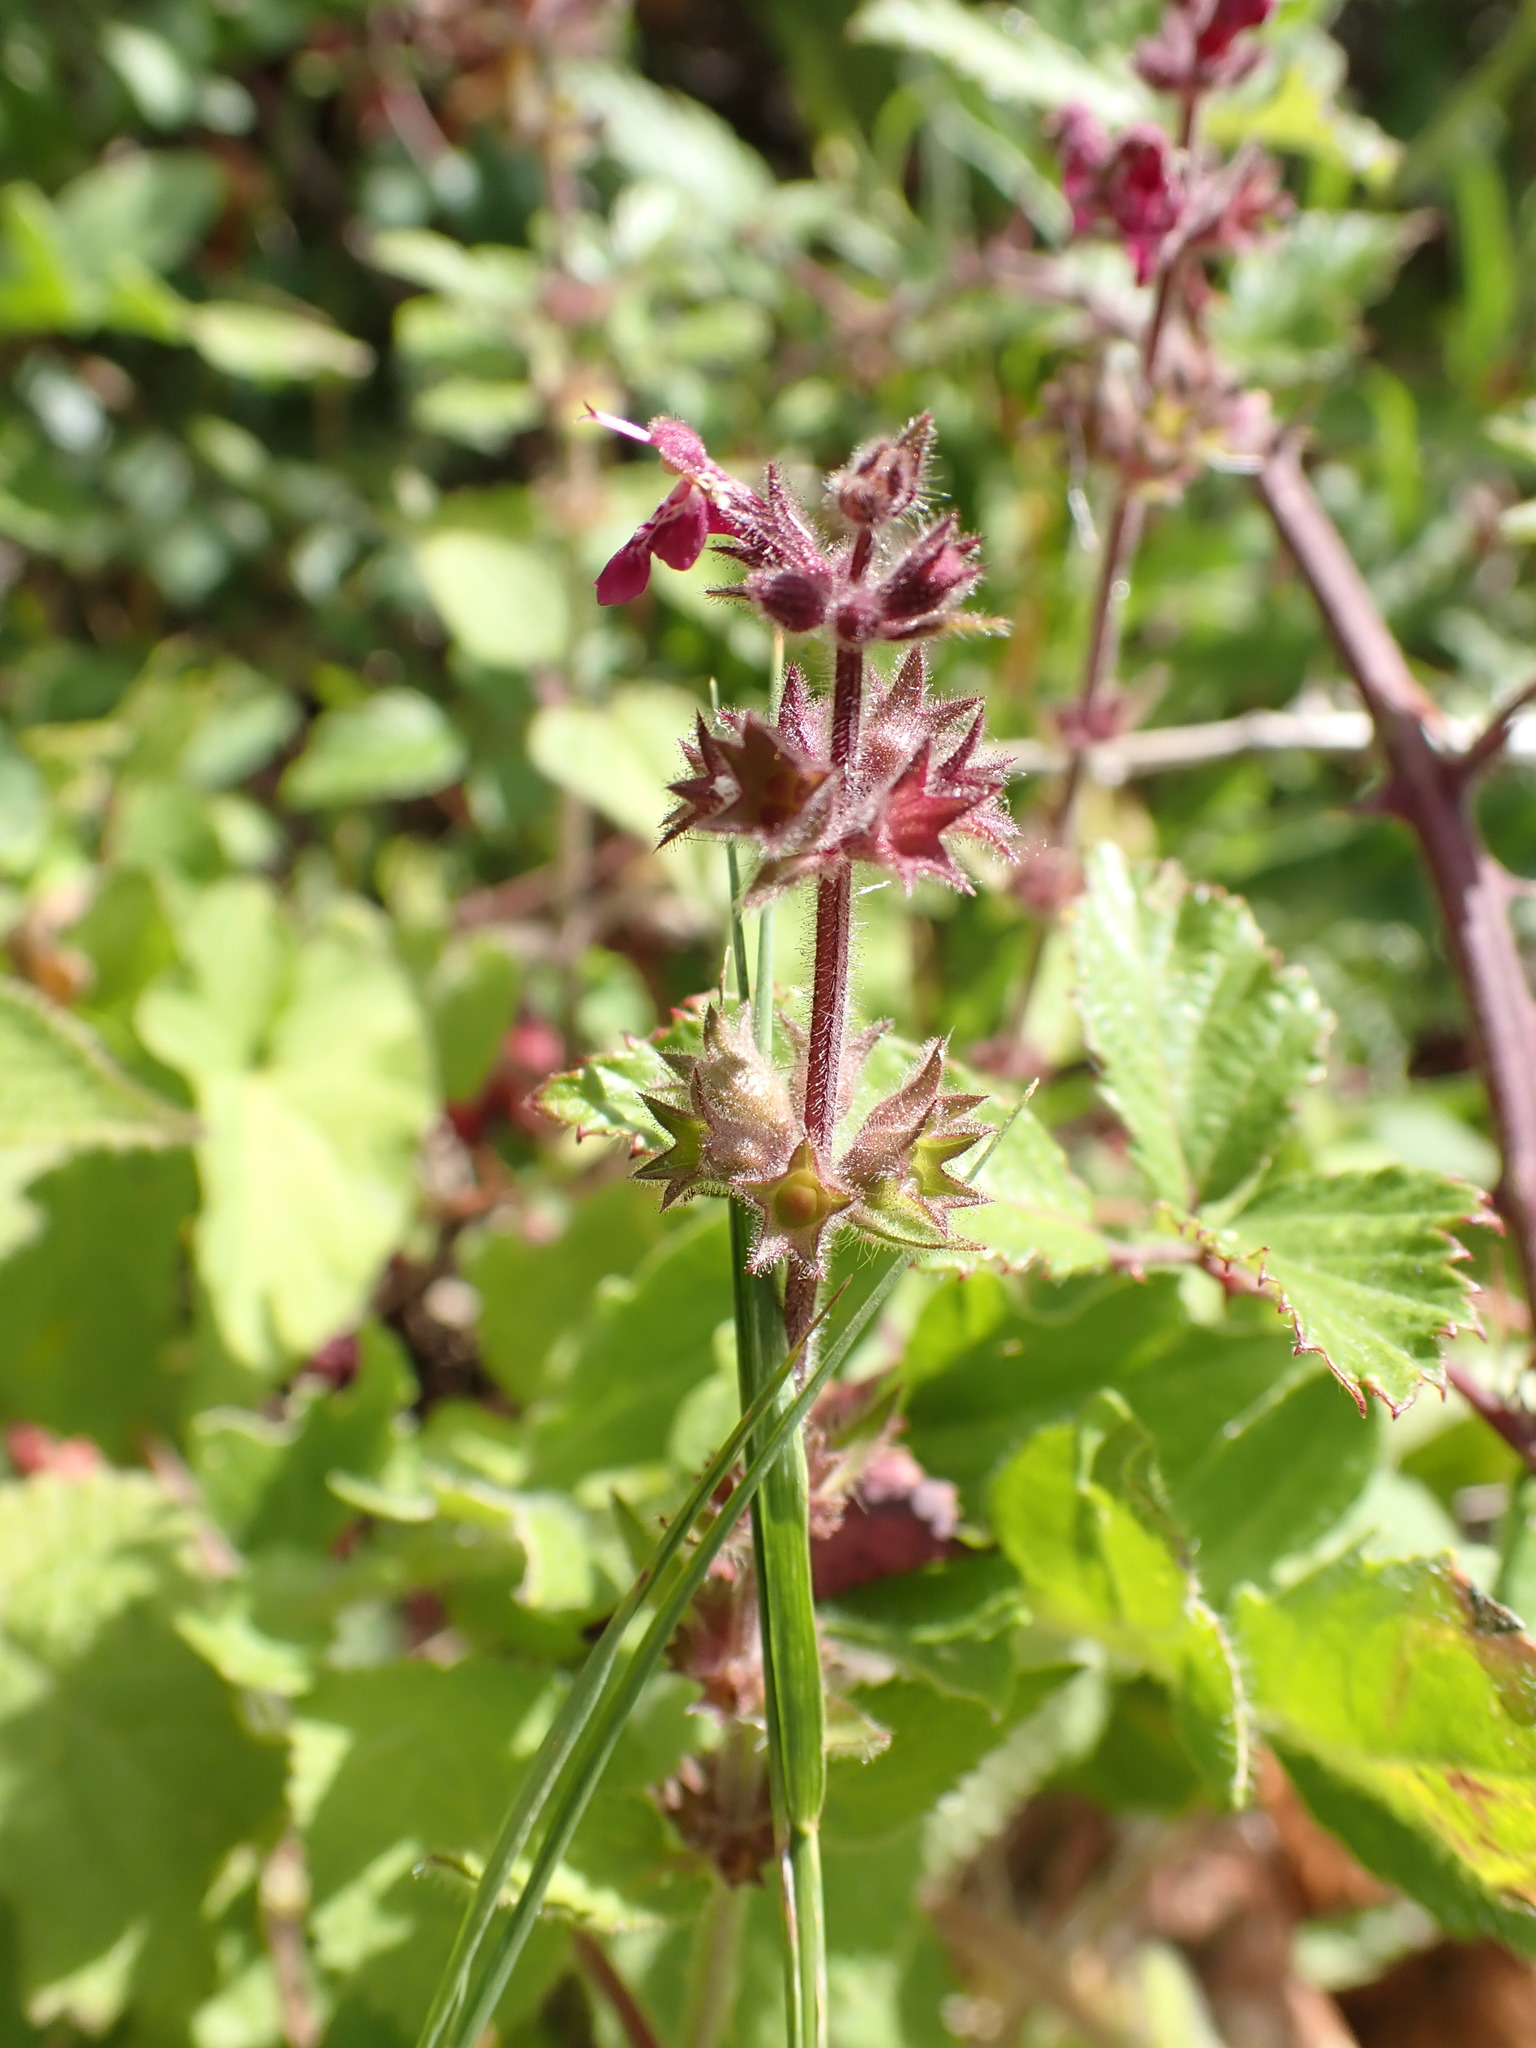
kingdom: Plantae
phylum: Tracheophyta
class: Magnoliopsida
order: Lamiales
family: Lamiaceae
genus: Stachys
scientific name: Stachys sylvatica
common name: Hedge woundwort
